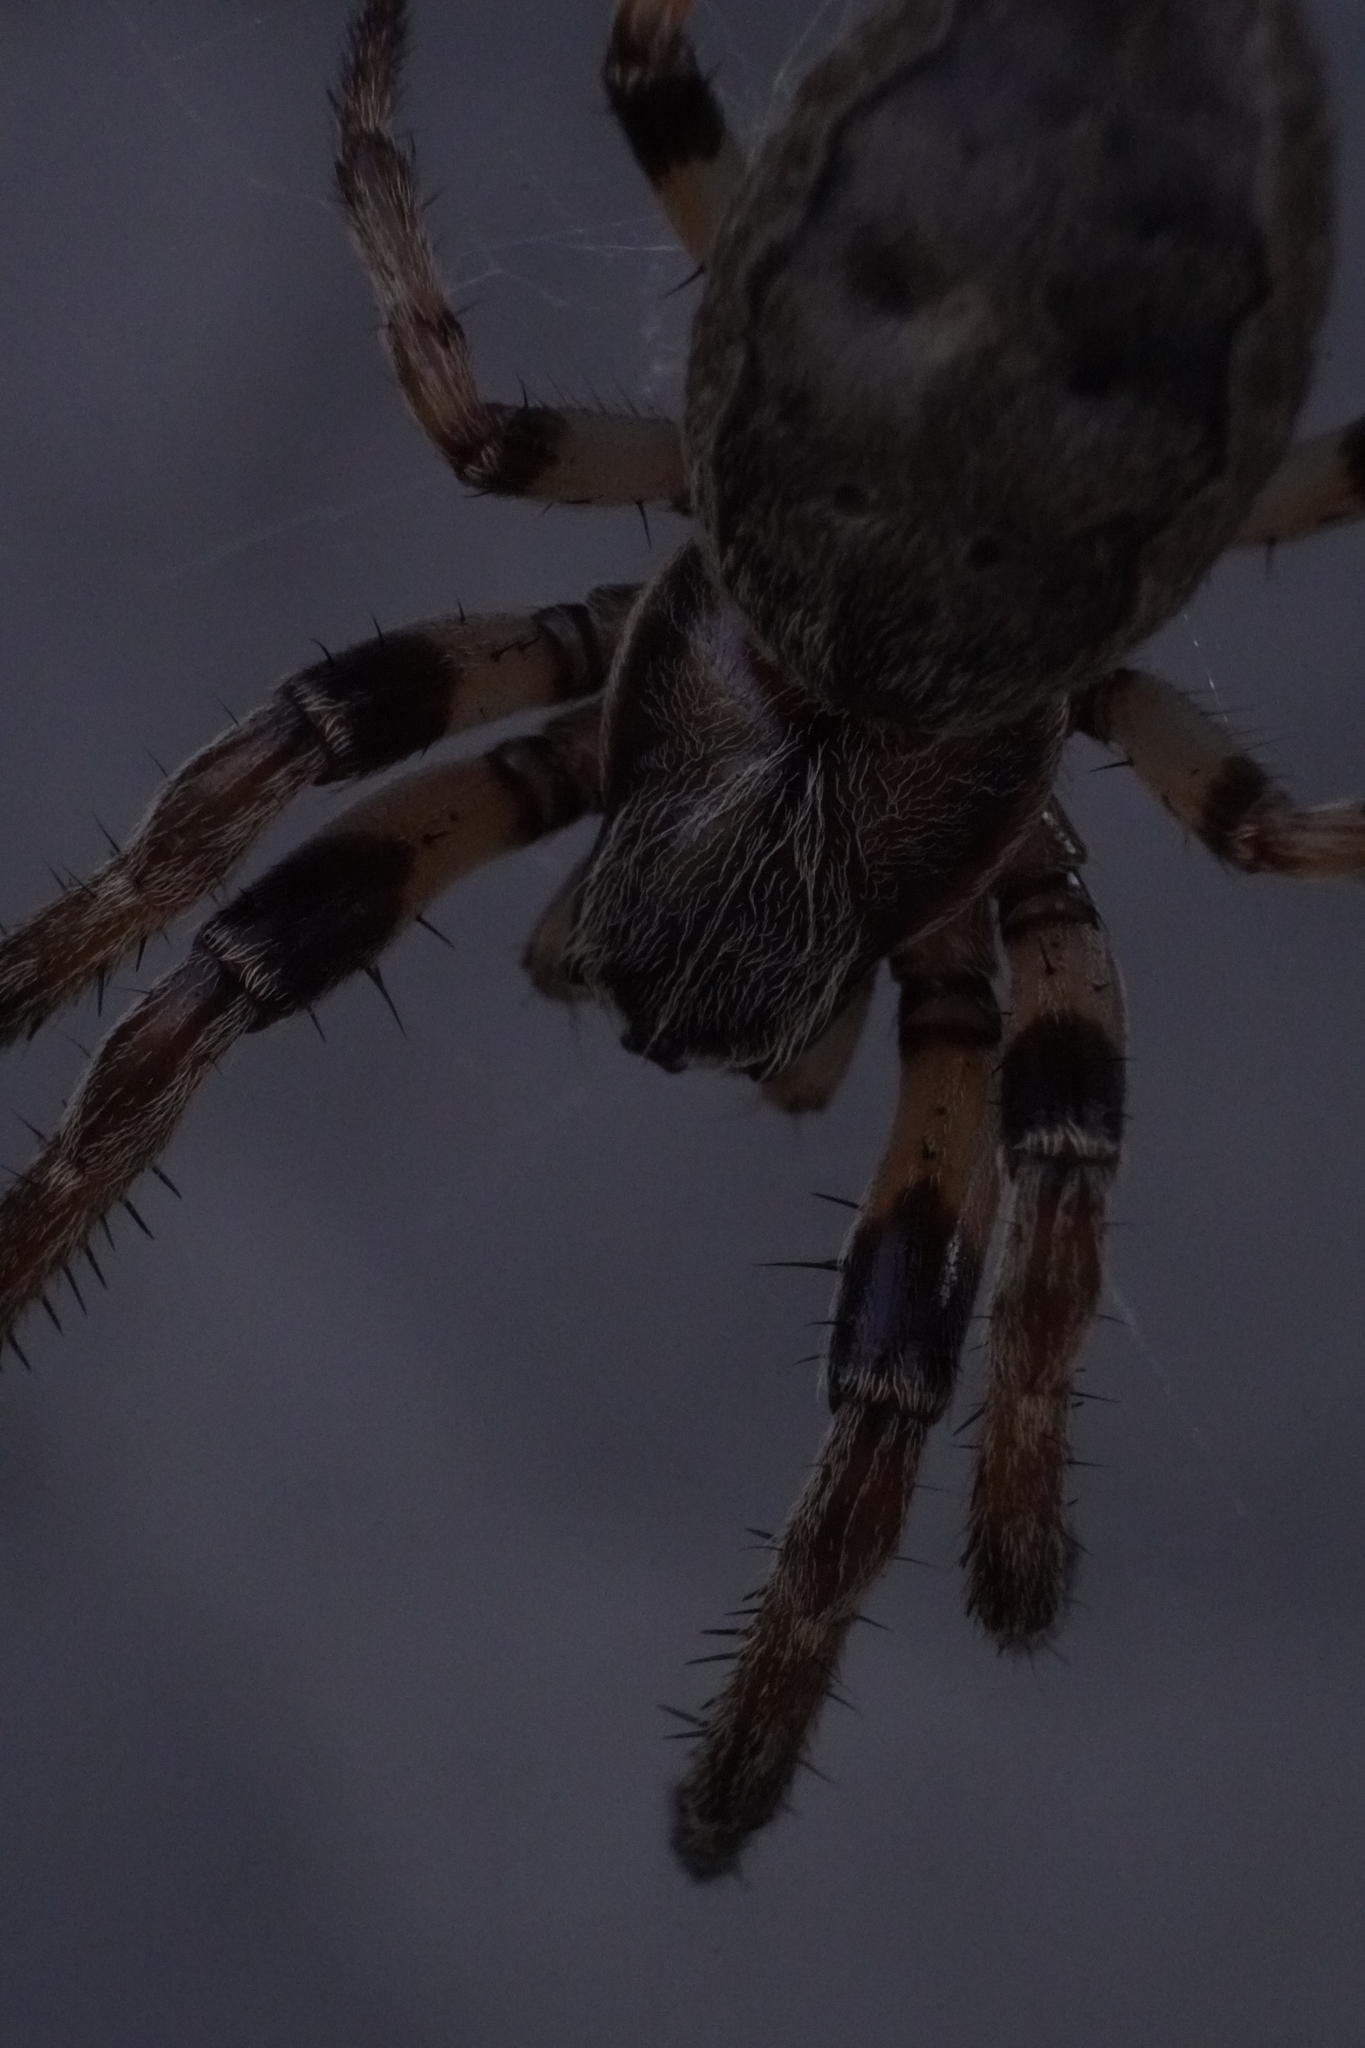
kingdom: Animalia
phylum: Arthropoda
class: Arachnida
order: Araneae
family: Araneidae
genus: Larinioides
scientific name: Larinioides cornutus
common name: Furrow orbweaver
